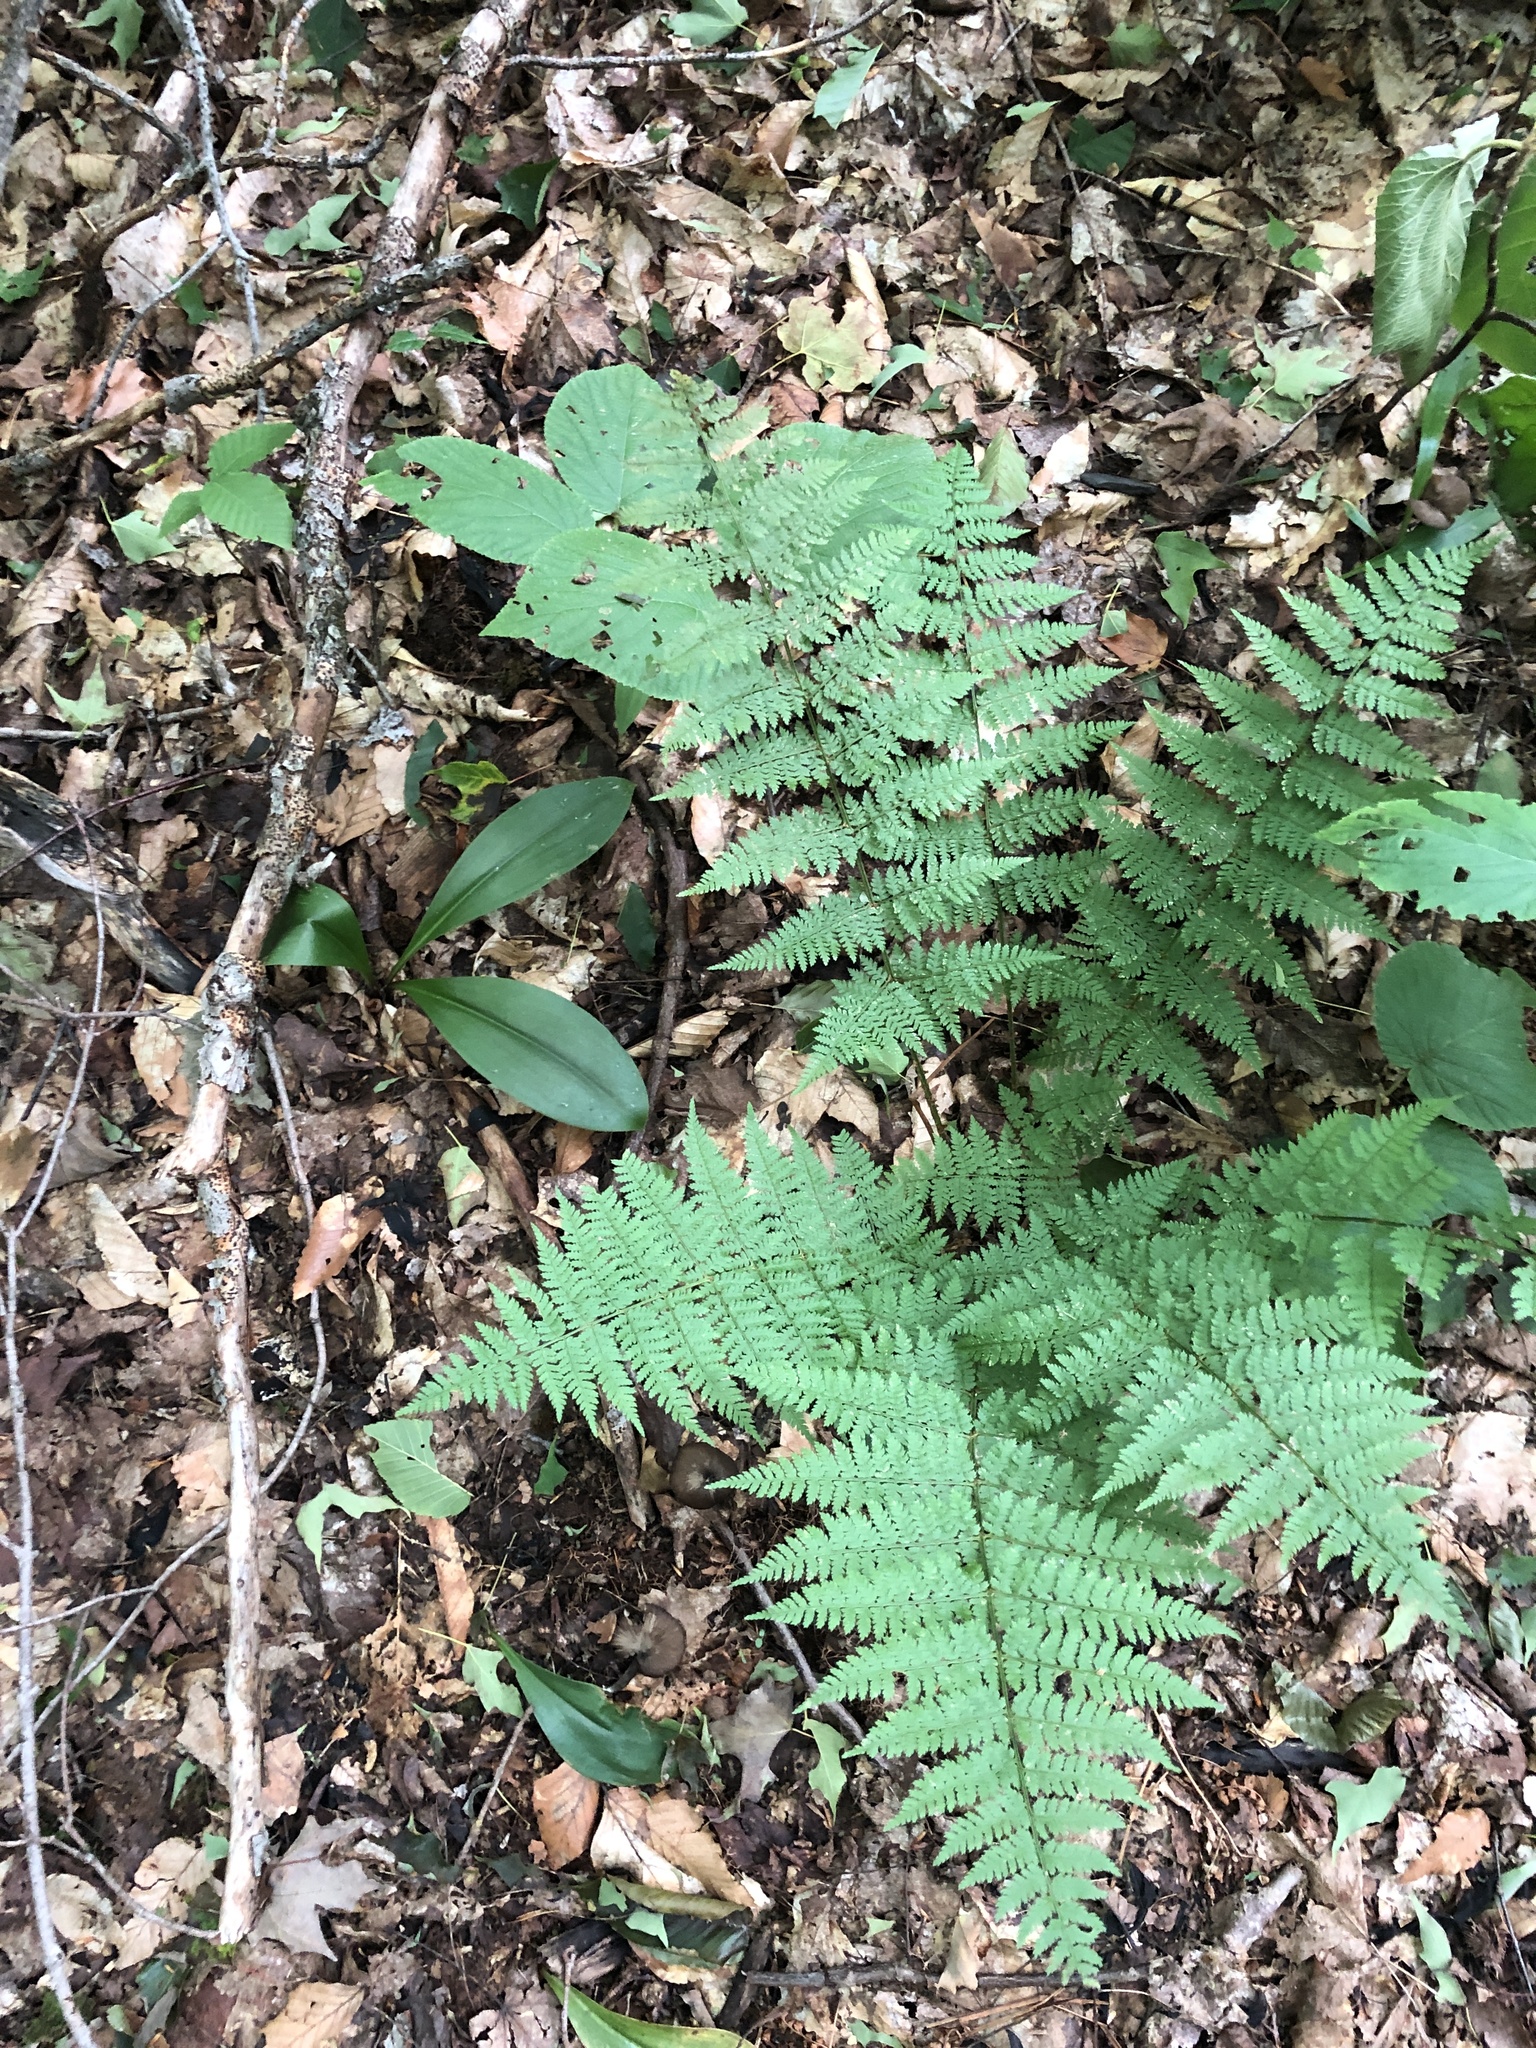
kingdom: Plantae
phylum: Tracheophyta
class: Polypodiopsida
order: Polypodiales
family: Dryopteridaceae
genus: Dryopteris
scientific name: Dryopteris intermedia
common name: Evergreen wood fern
